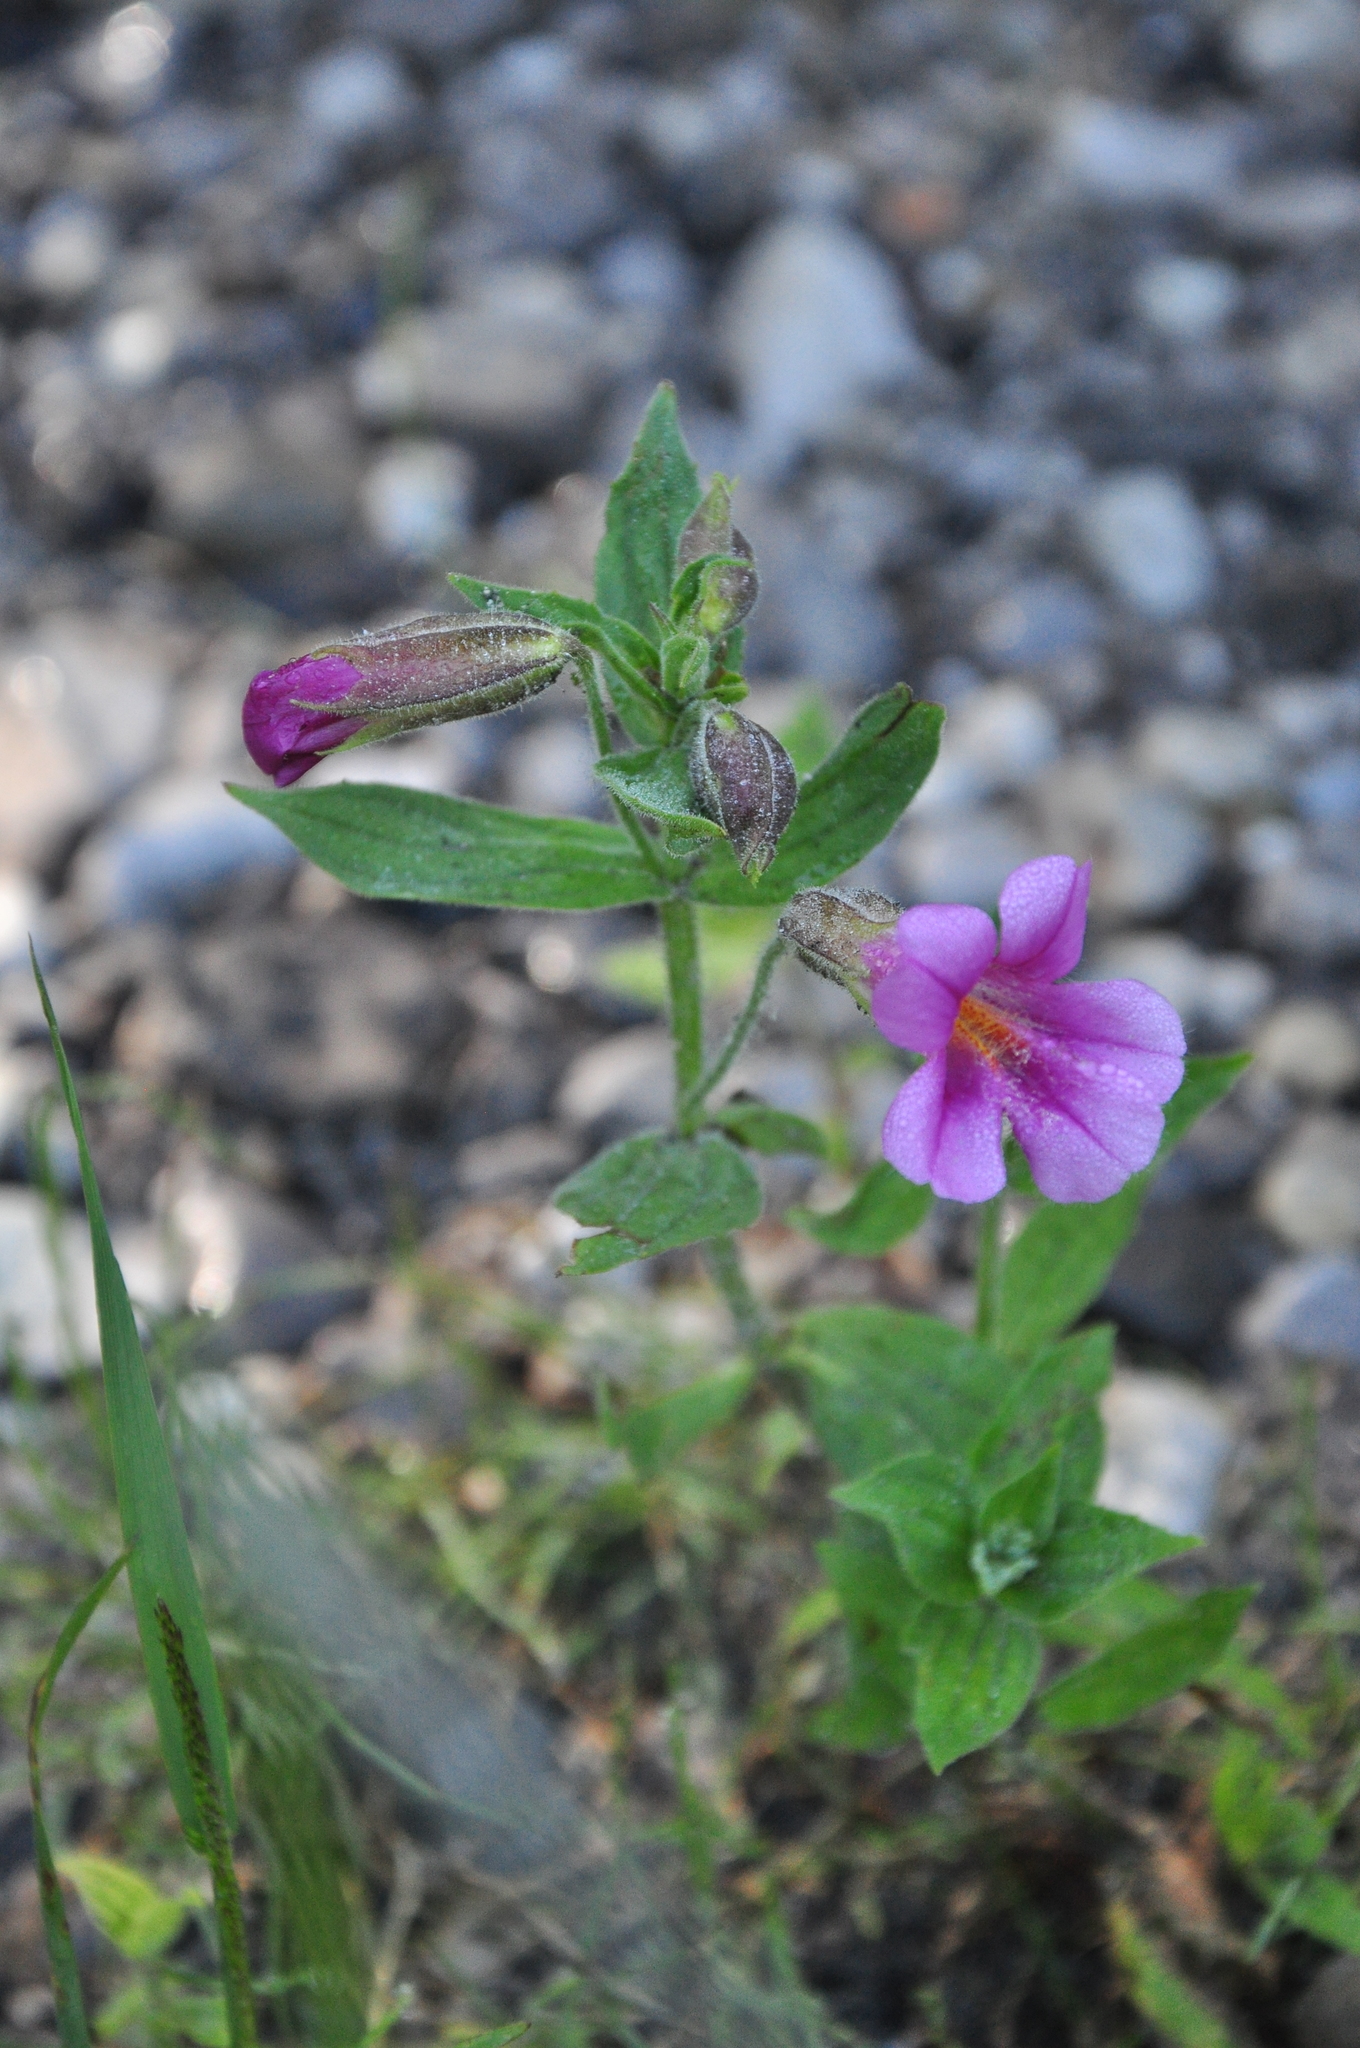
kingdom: Plantae
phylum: Tracheophyta
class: Magnoliopsida
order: Lamiales
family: Phrymaceae
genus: Erythranthe
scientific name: Erythranthe lewisii
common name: Lewis's monkey-flower
